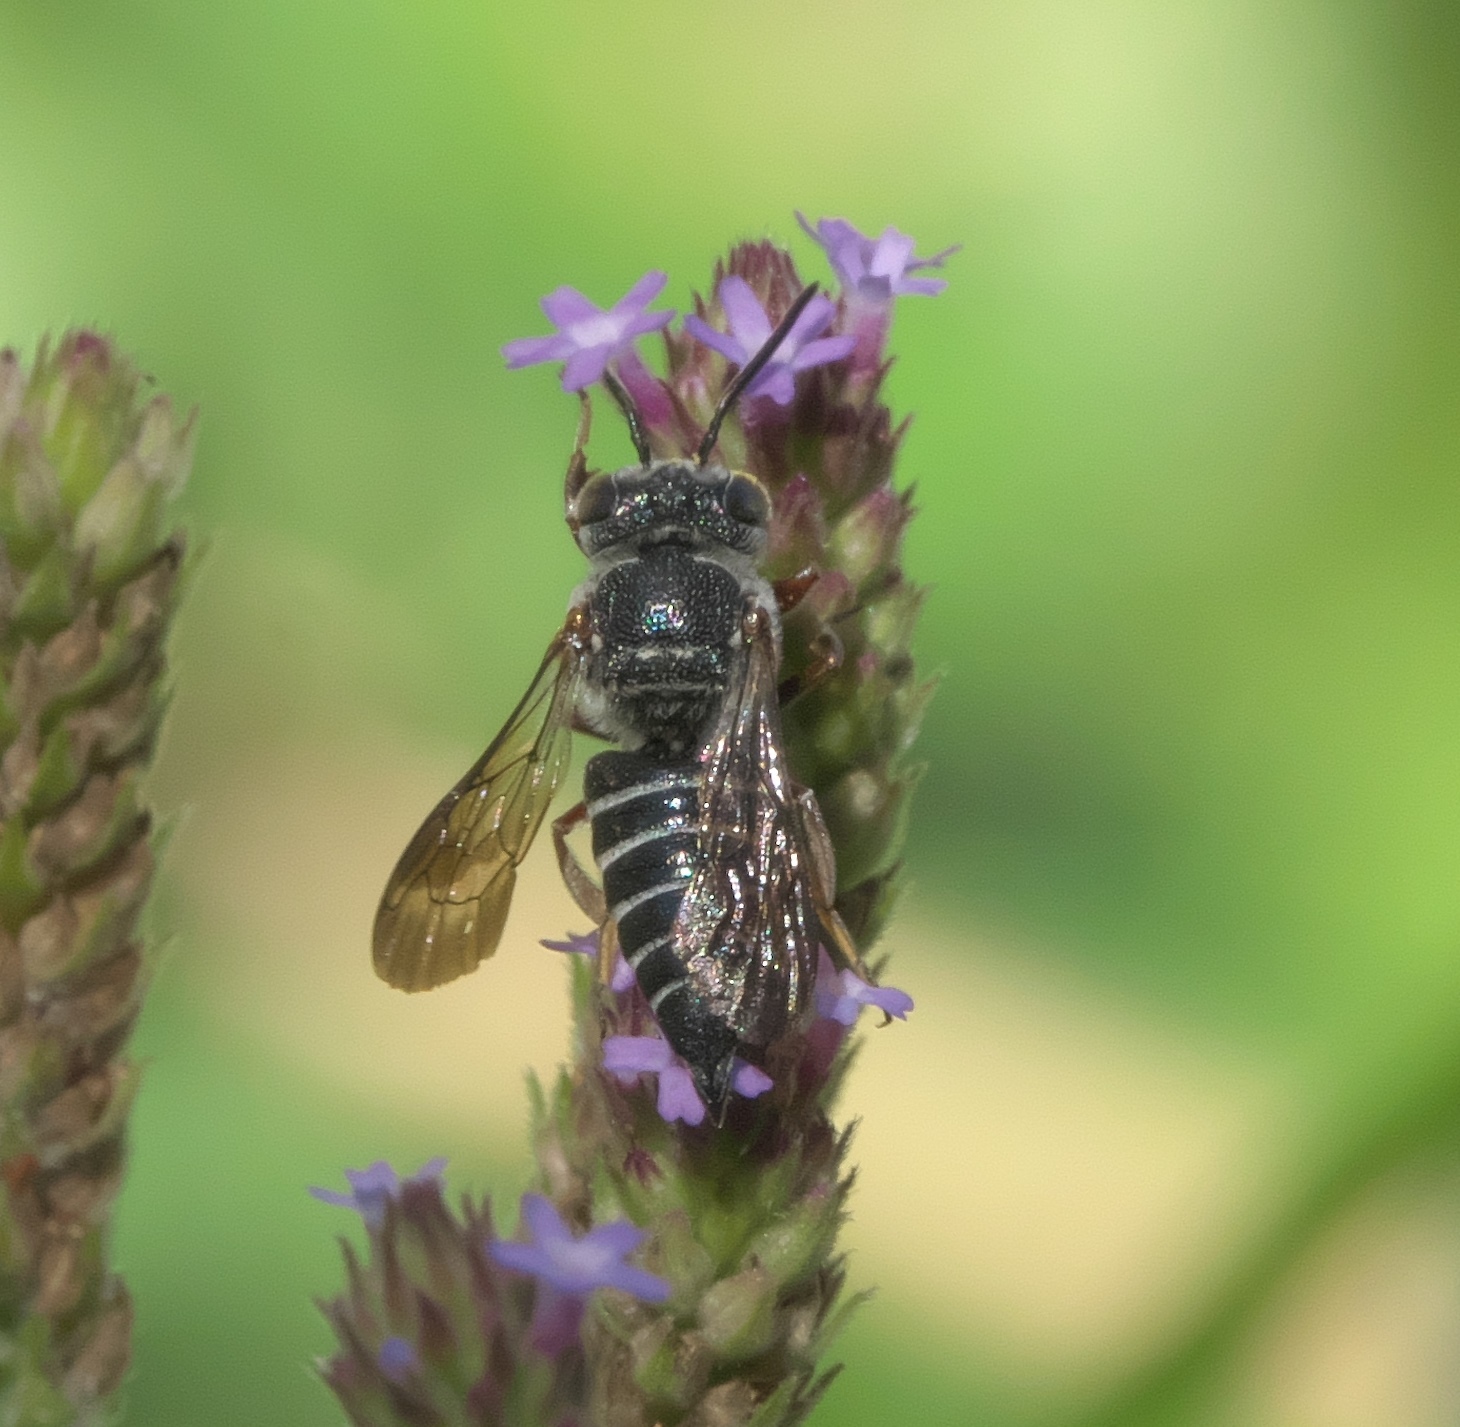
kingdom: Animalia
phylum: Arthropoda
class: Insecta
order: Hymenoptera
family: Megachilidae
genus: Coelioxys
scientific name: Coelioxys octodentatus
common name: Eight-toothed cuckoo leaf-cutter bee
